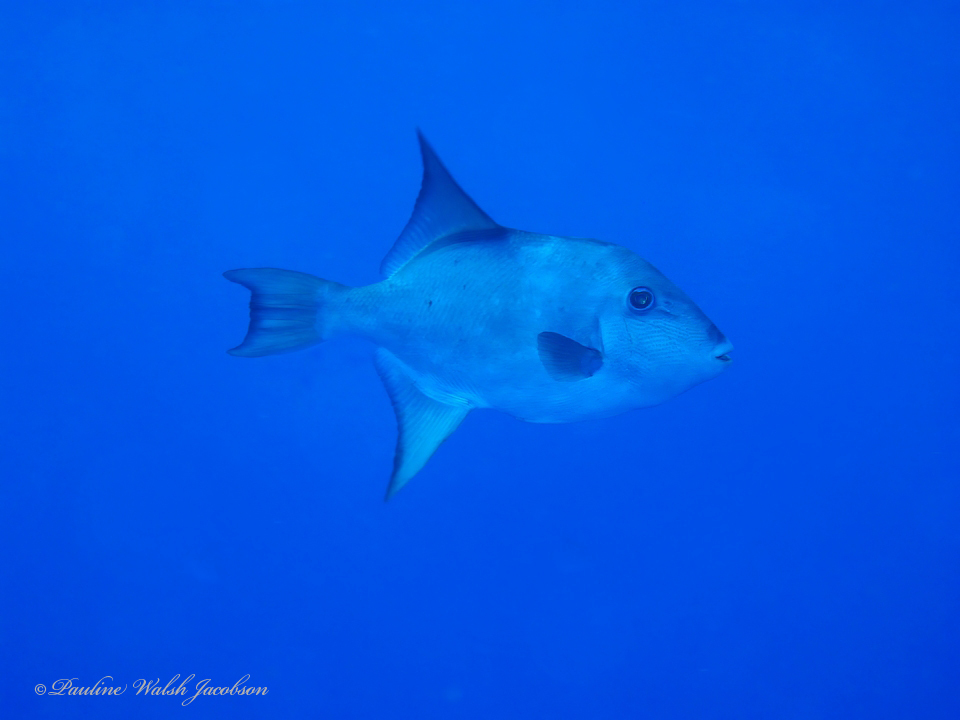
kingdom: Animalia
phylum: Chordata
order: Tetraodontiformes
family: Balistidae
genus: Canthidermis
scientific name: Canthidermis sufflamen
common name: Ocean triggerfish
